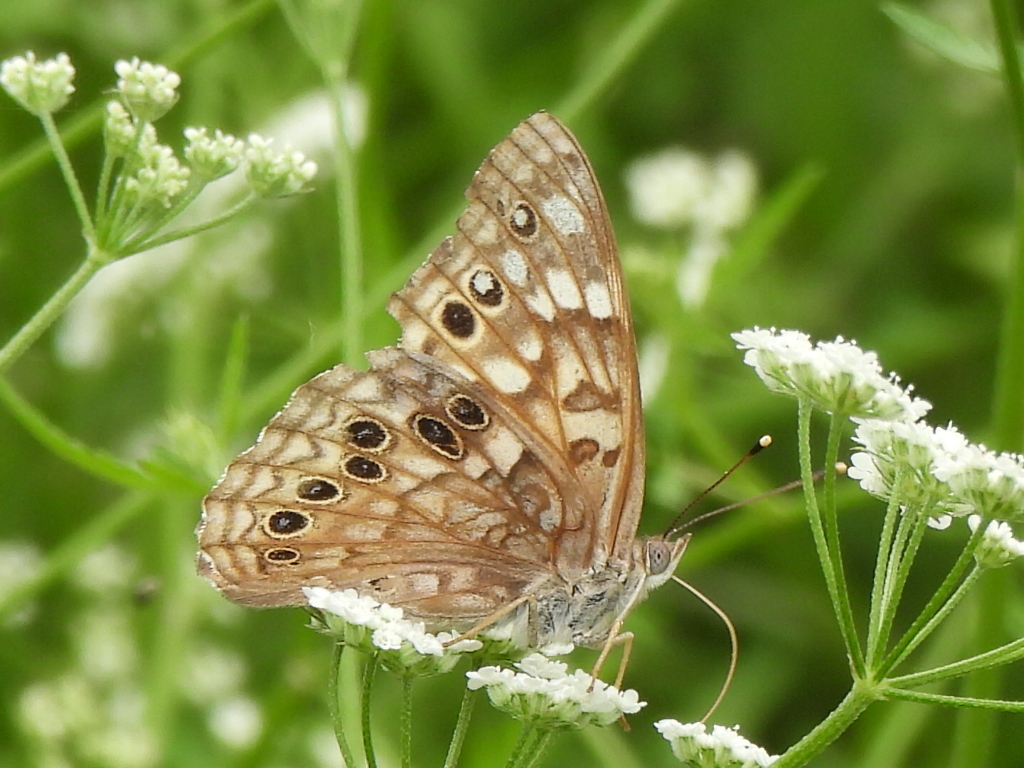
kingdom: Animalia
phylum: Arthropoda
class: Insecta
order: Lepidoptera
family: Nymphalidae
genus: Asterocampa
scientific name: Asterocampa celtis
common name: Hackberry emperor
